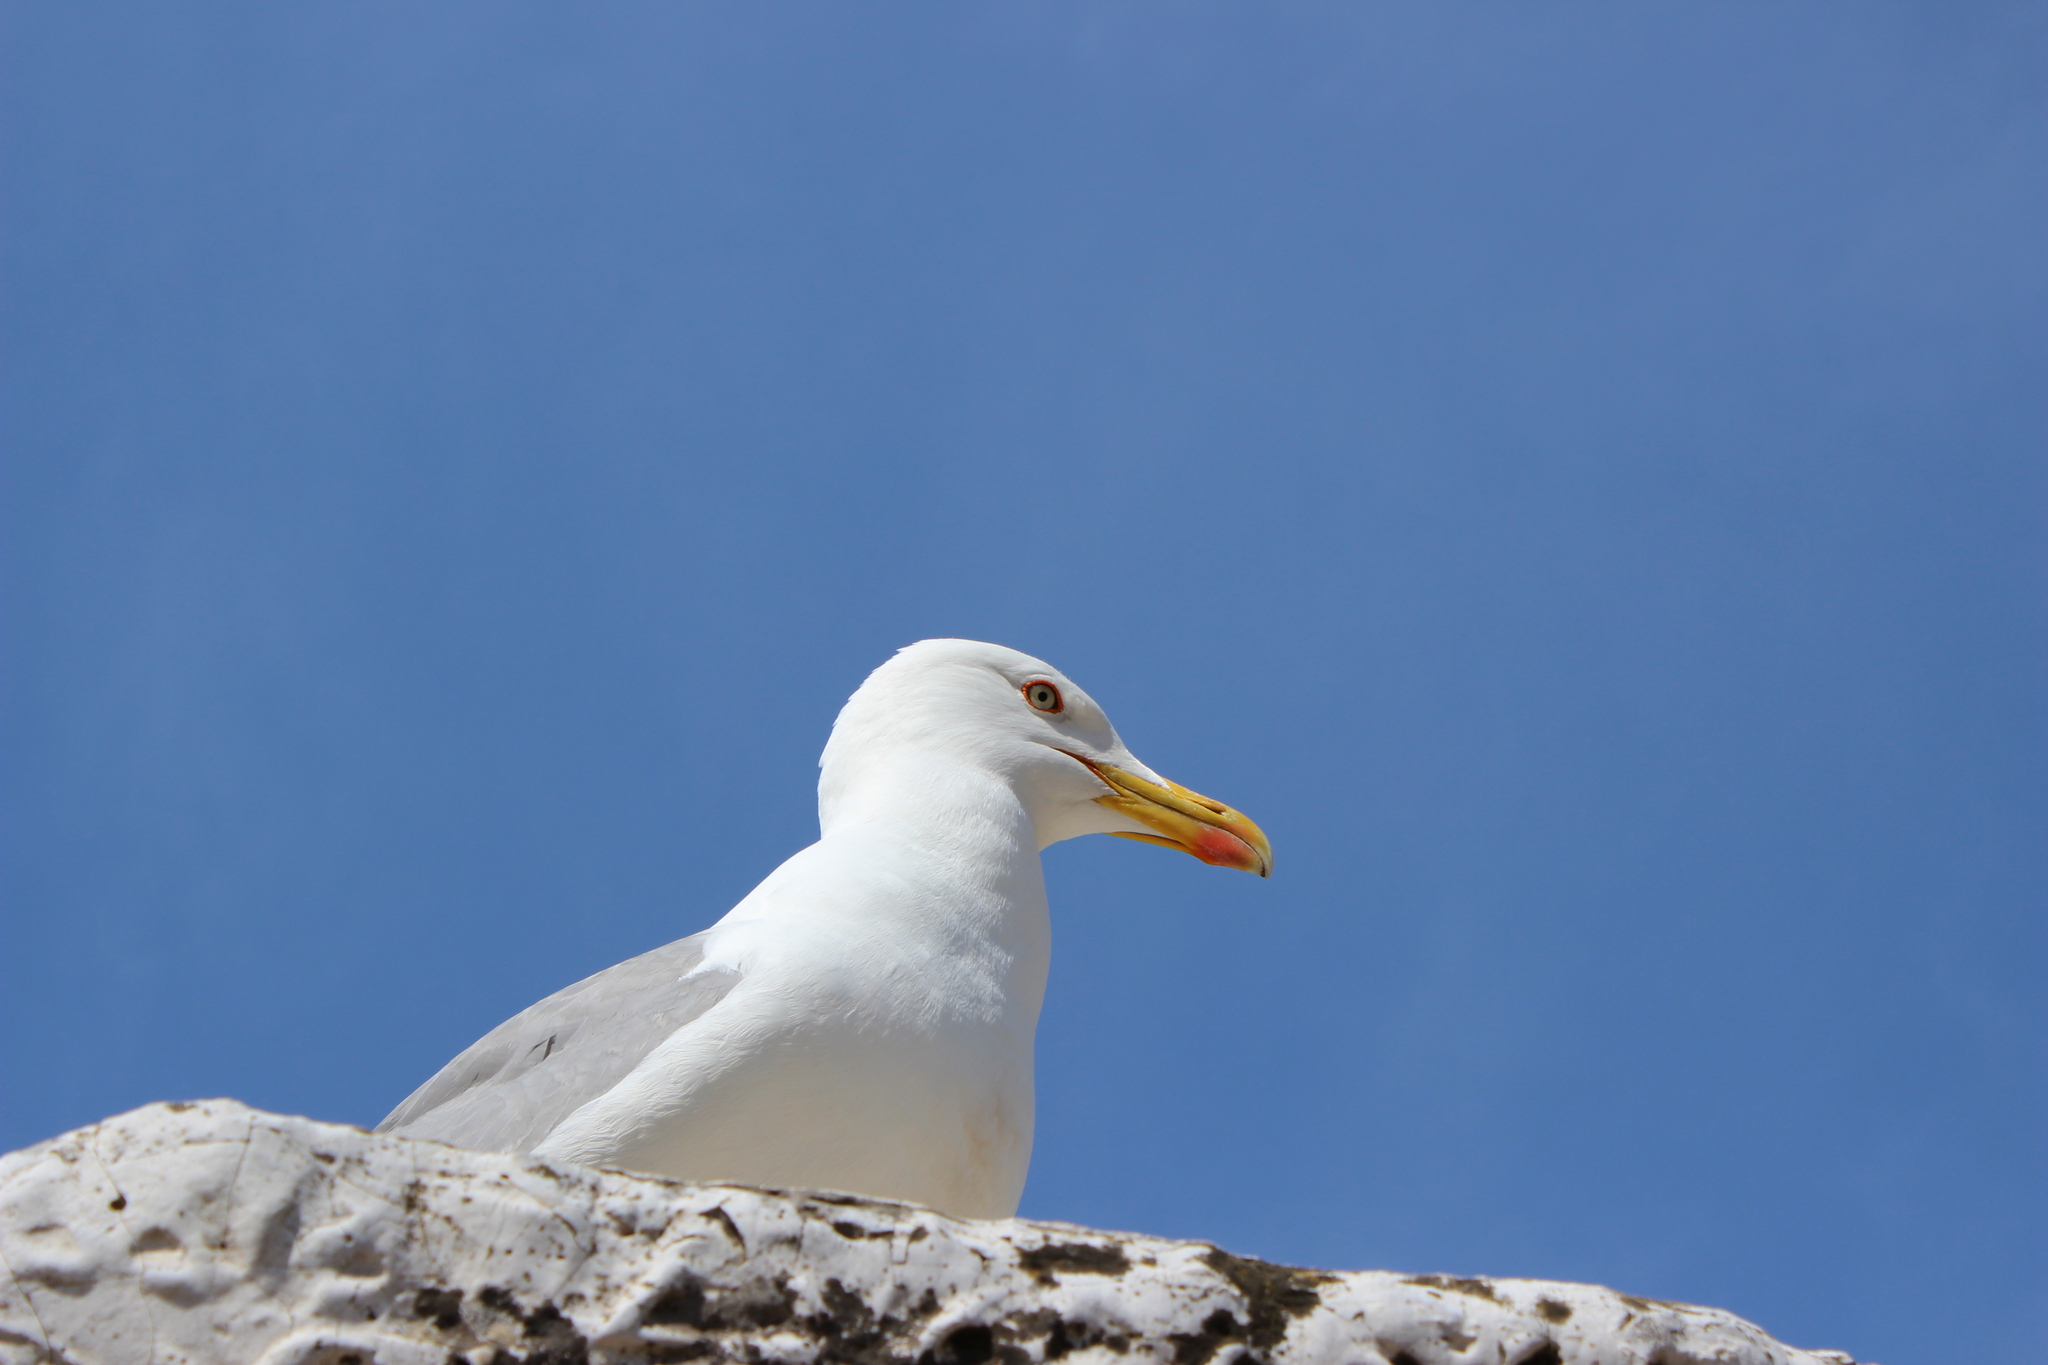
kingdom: Animalia
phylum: Chordata
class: Aves
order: Charadriiformes
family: Laridae
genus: Larus
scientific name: Larus michahellis
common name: Yellow-legged gull
